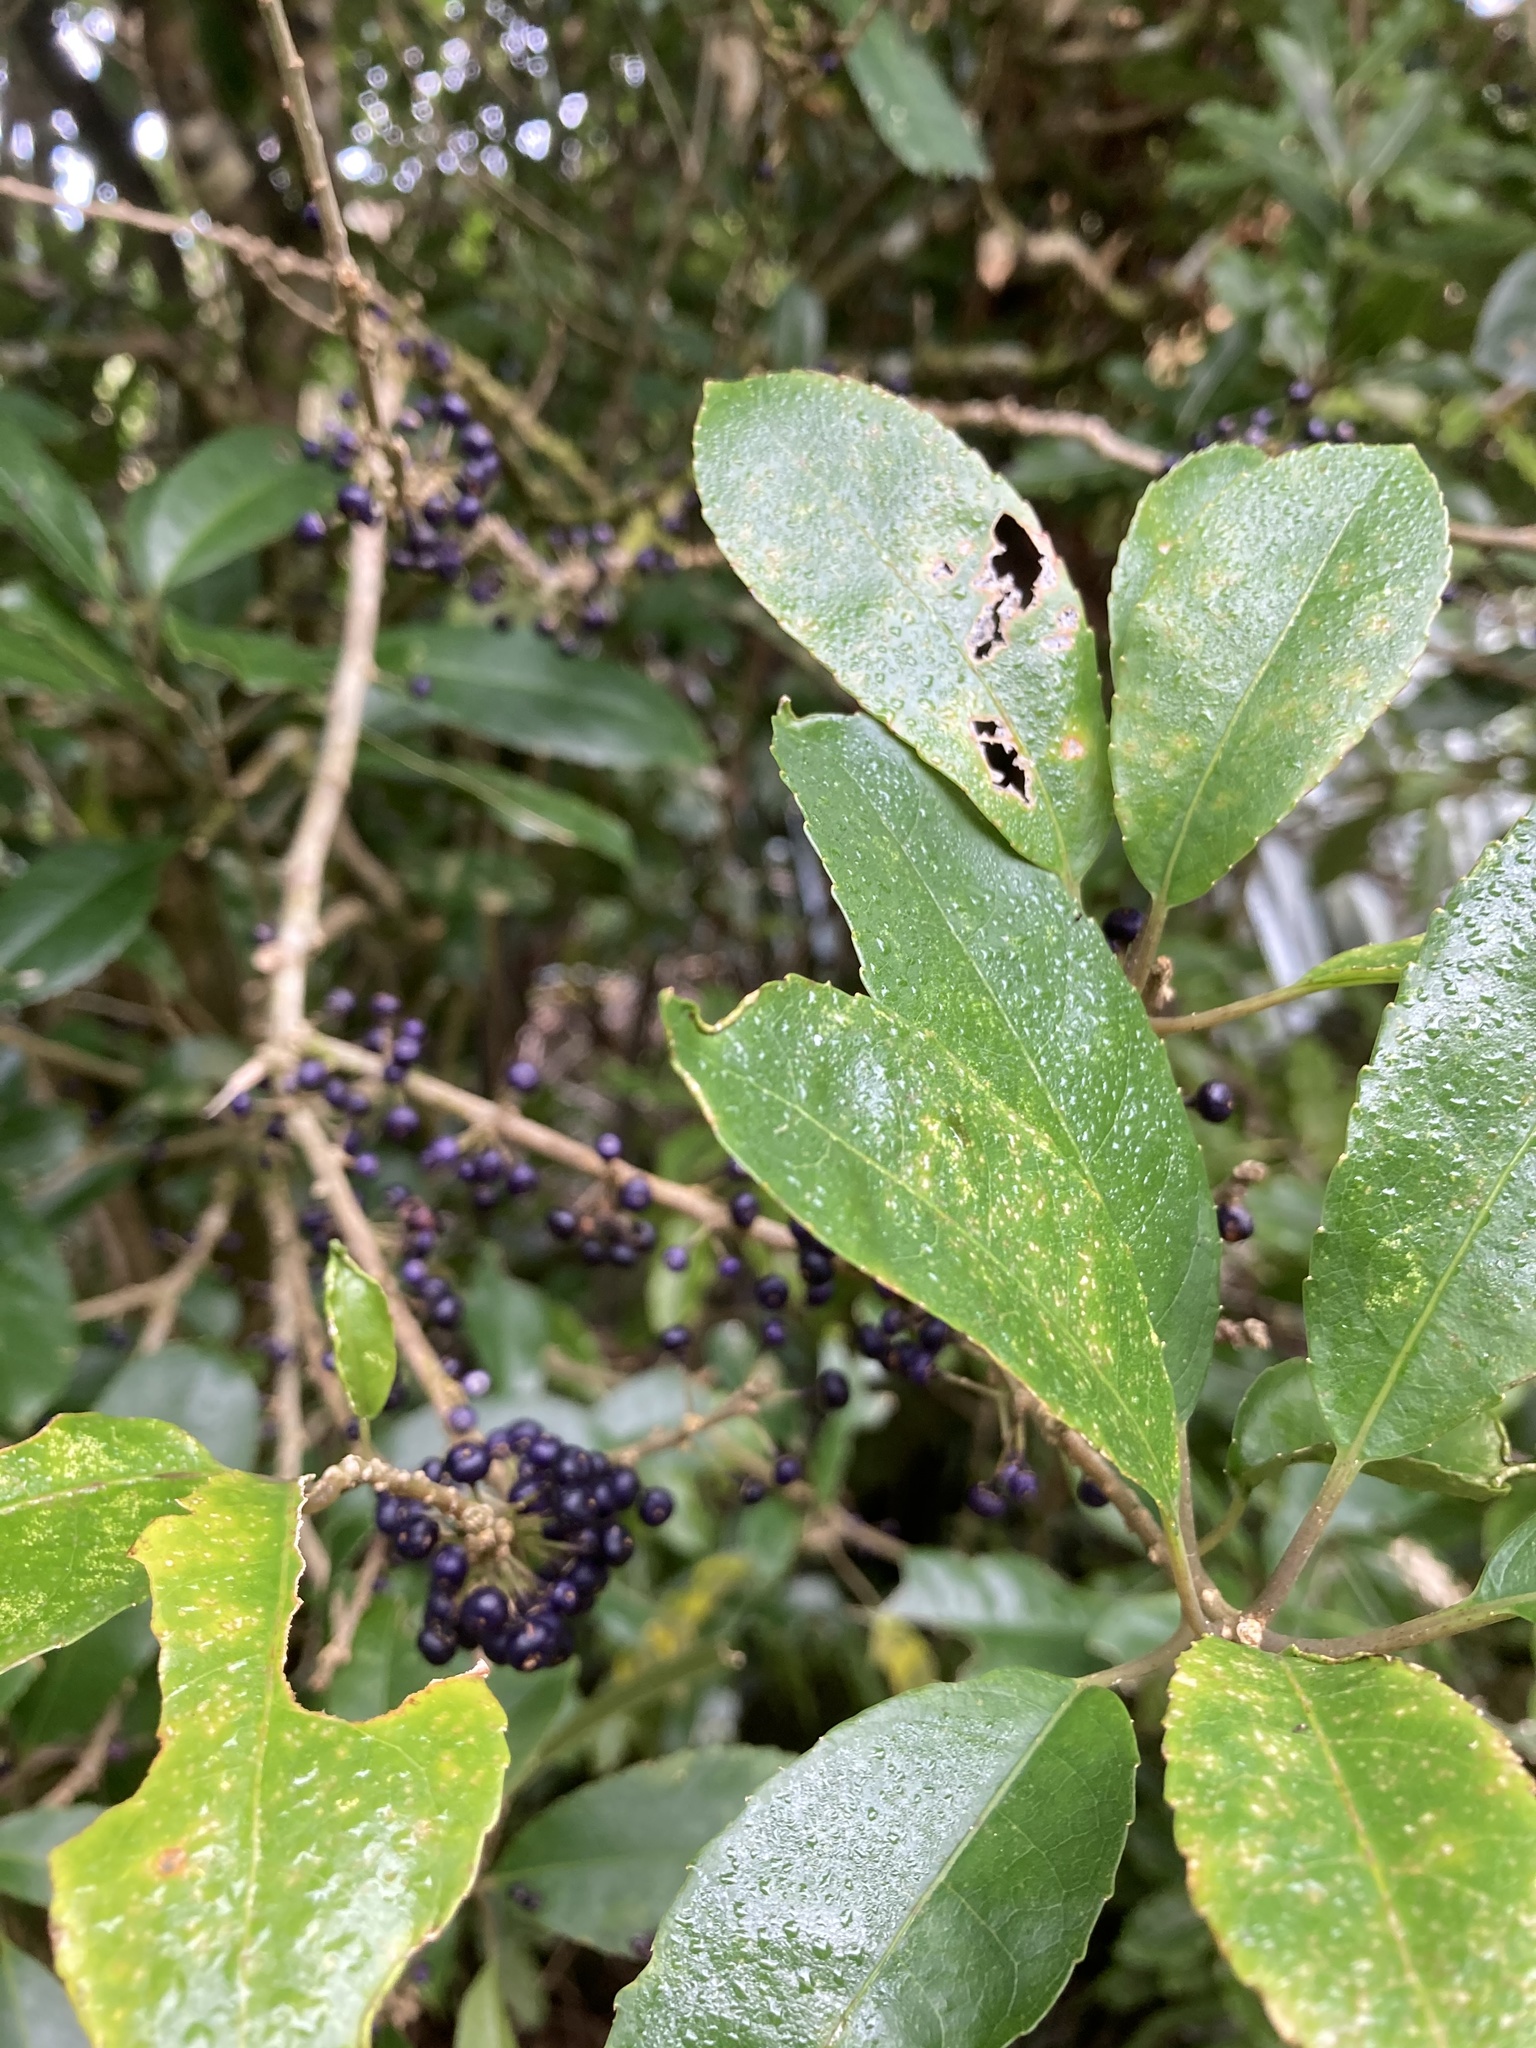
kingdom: Plantae
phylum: Tracheophyta
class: Magnoliopsida
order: Malpighiales
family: Violaceae
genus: Melicytus
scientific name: Melicytus ramiflorus
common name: Mahoe
